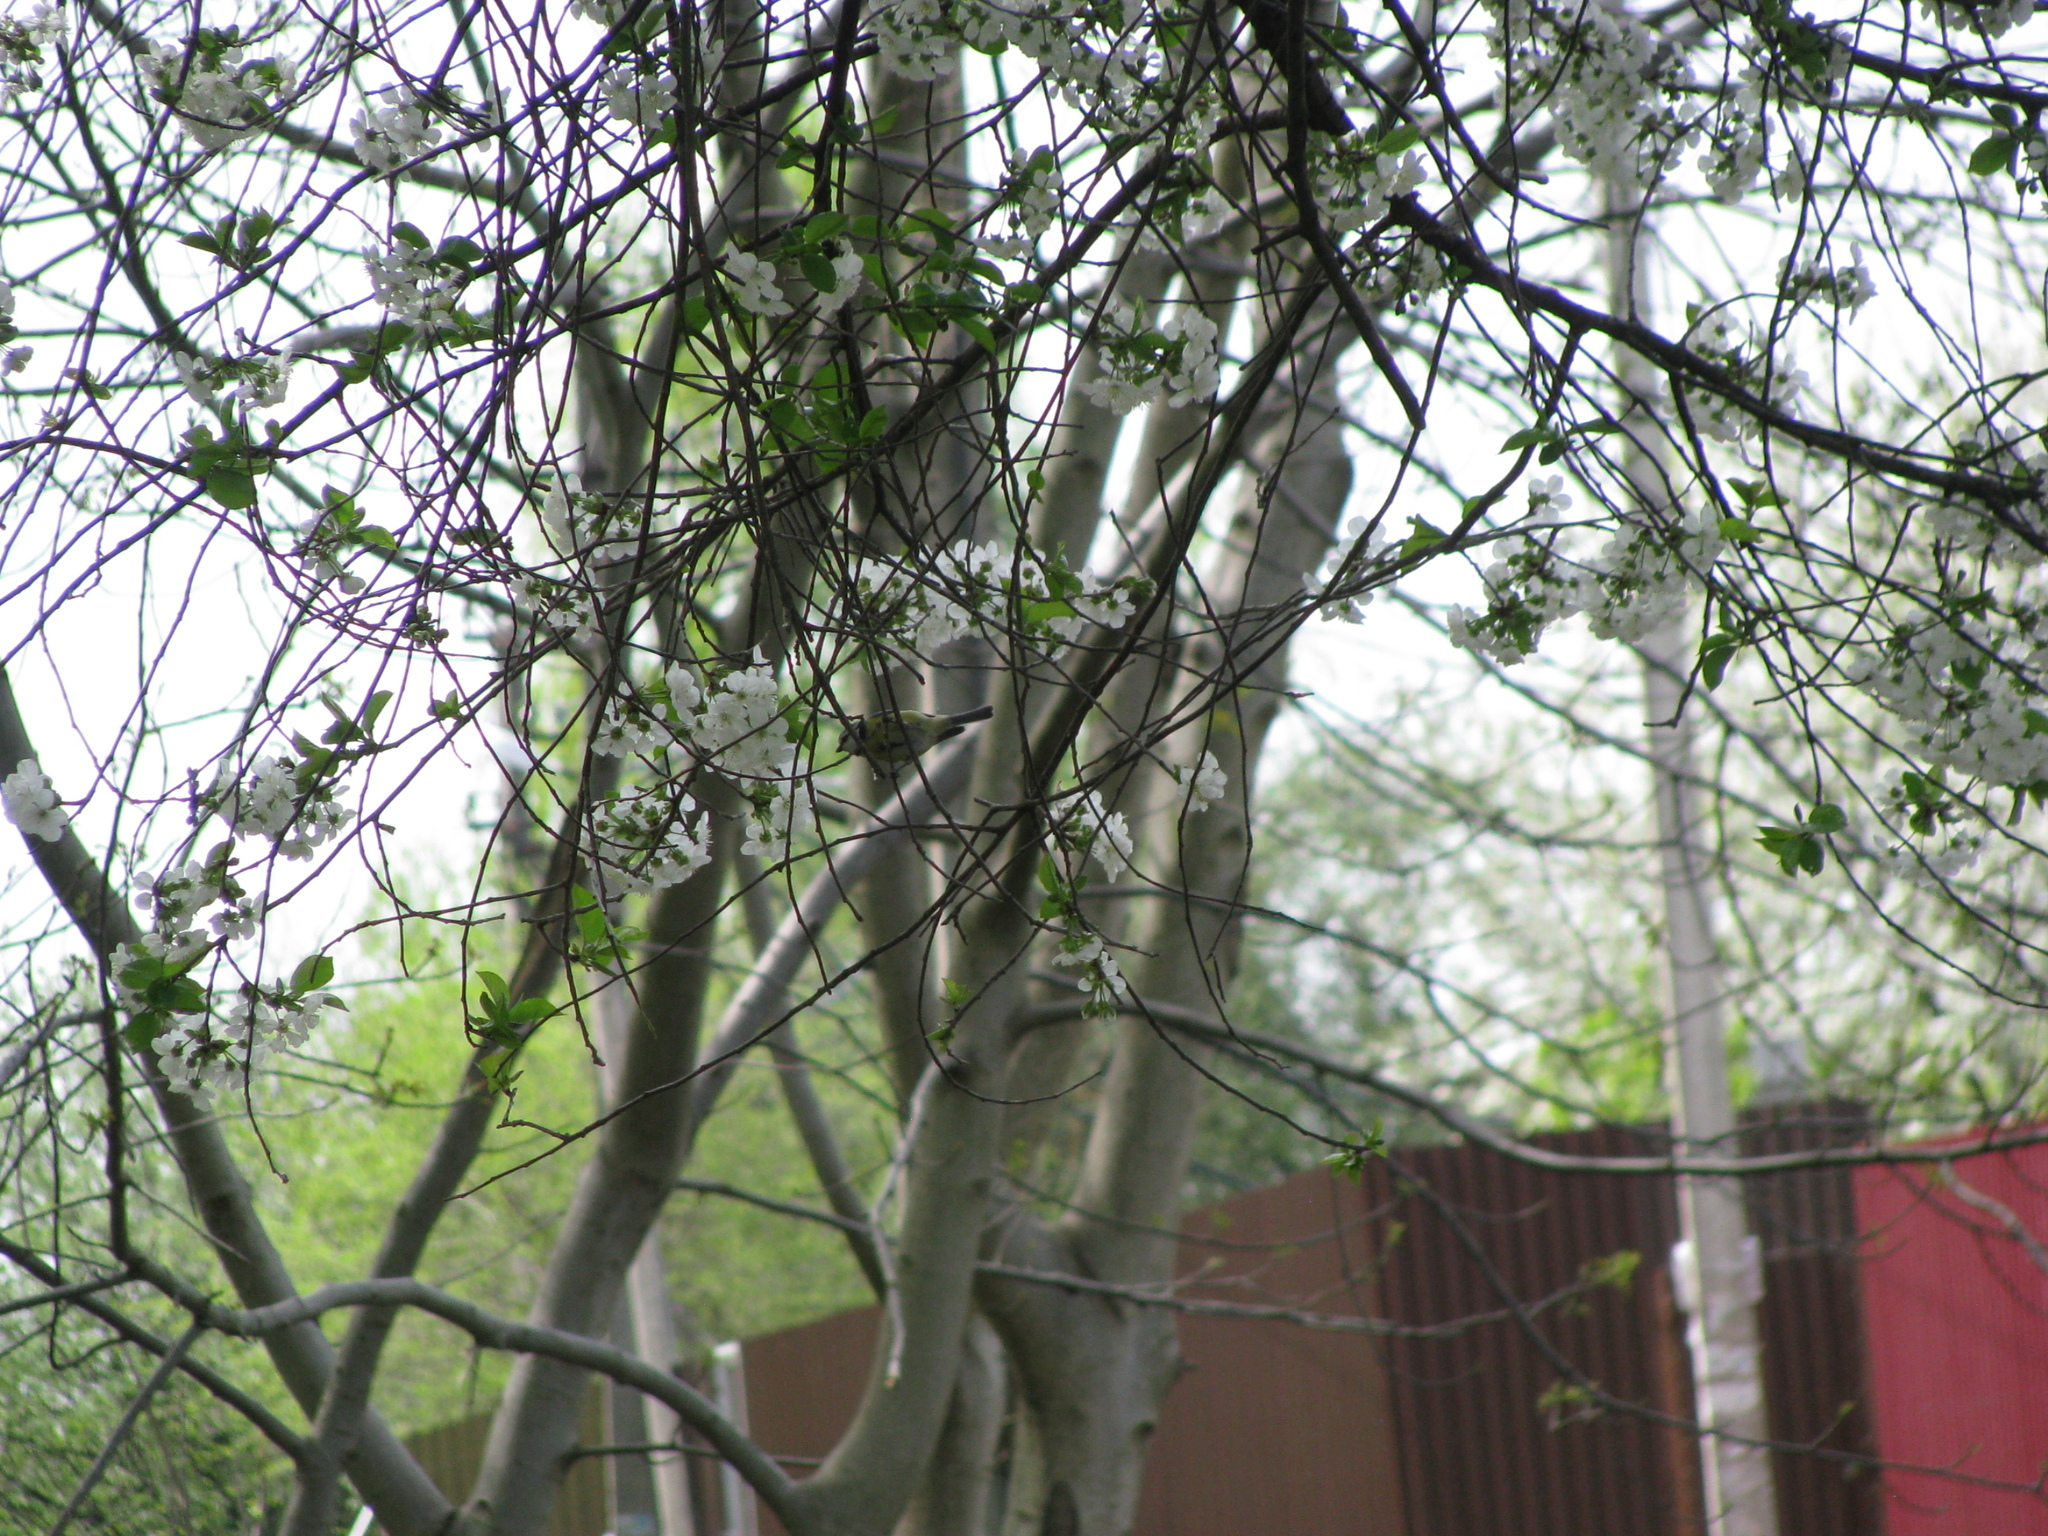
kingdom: Animalia
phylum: Chordata
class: Aves
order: Passeriformes
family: Paridae
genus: Cyanistes
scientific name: Cyanistes caeruleus
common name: Eurasian blue tit
